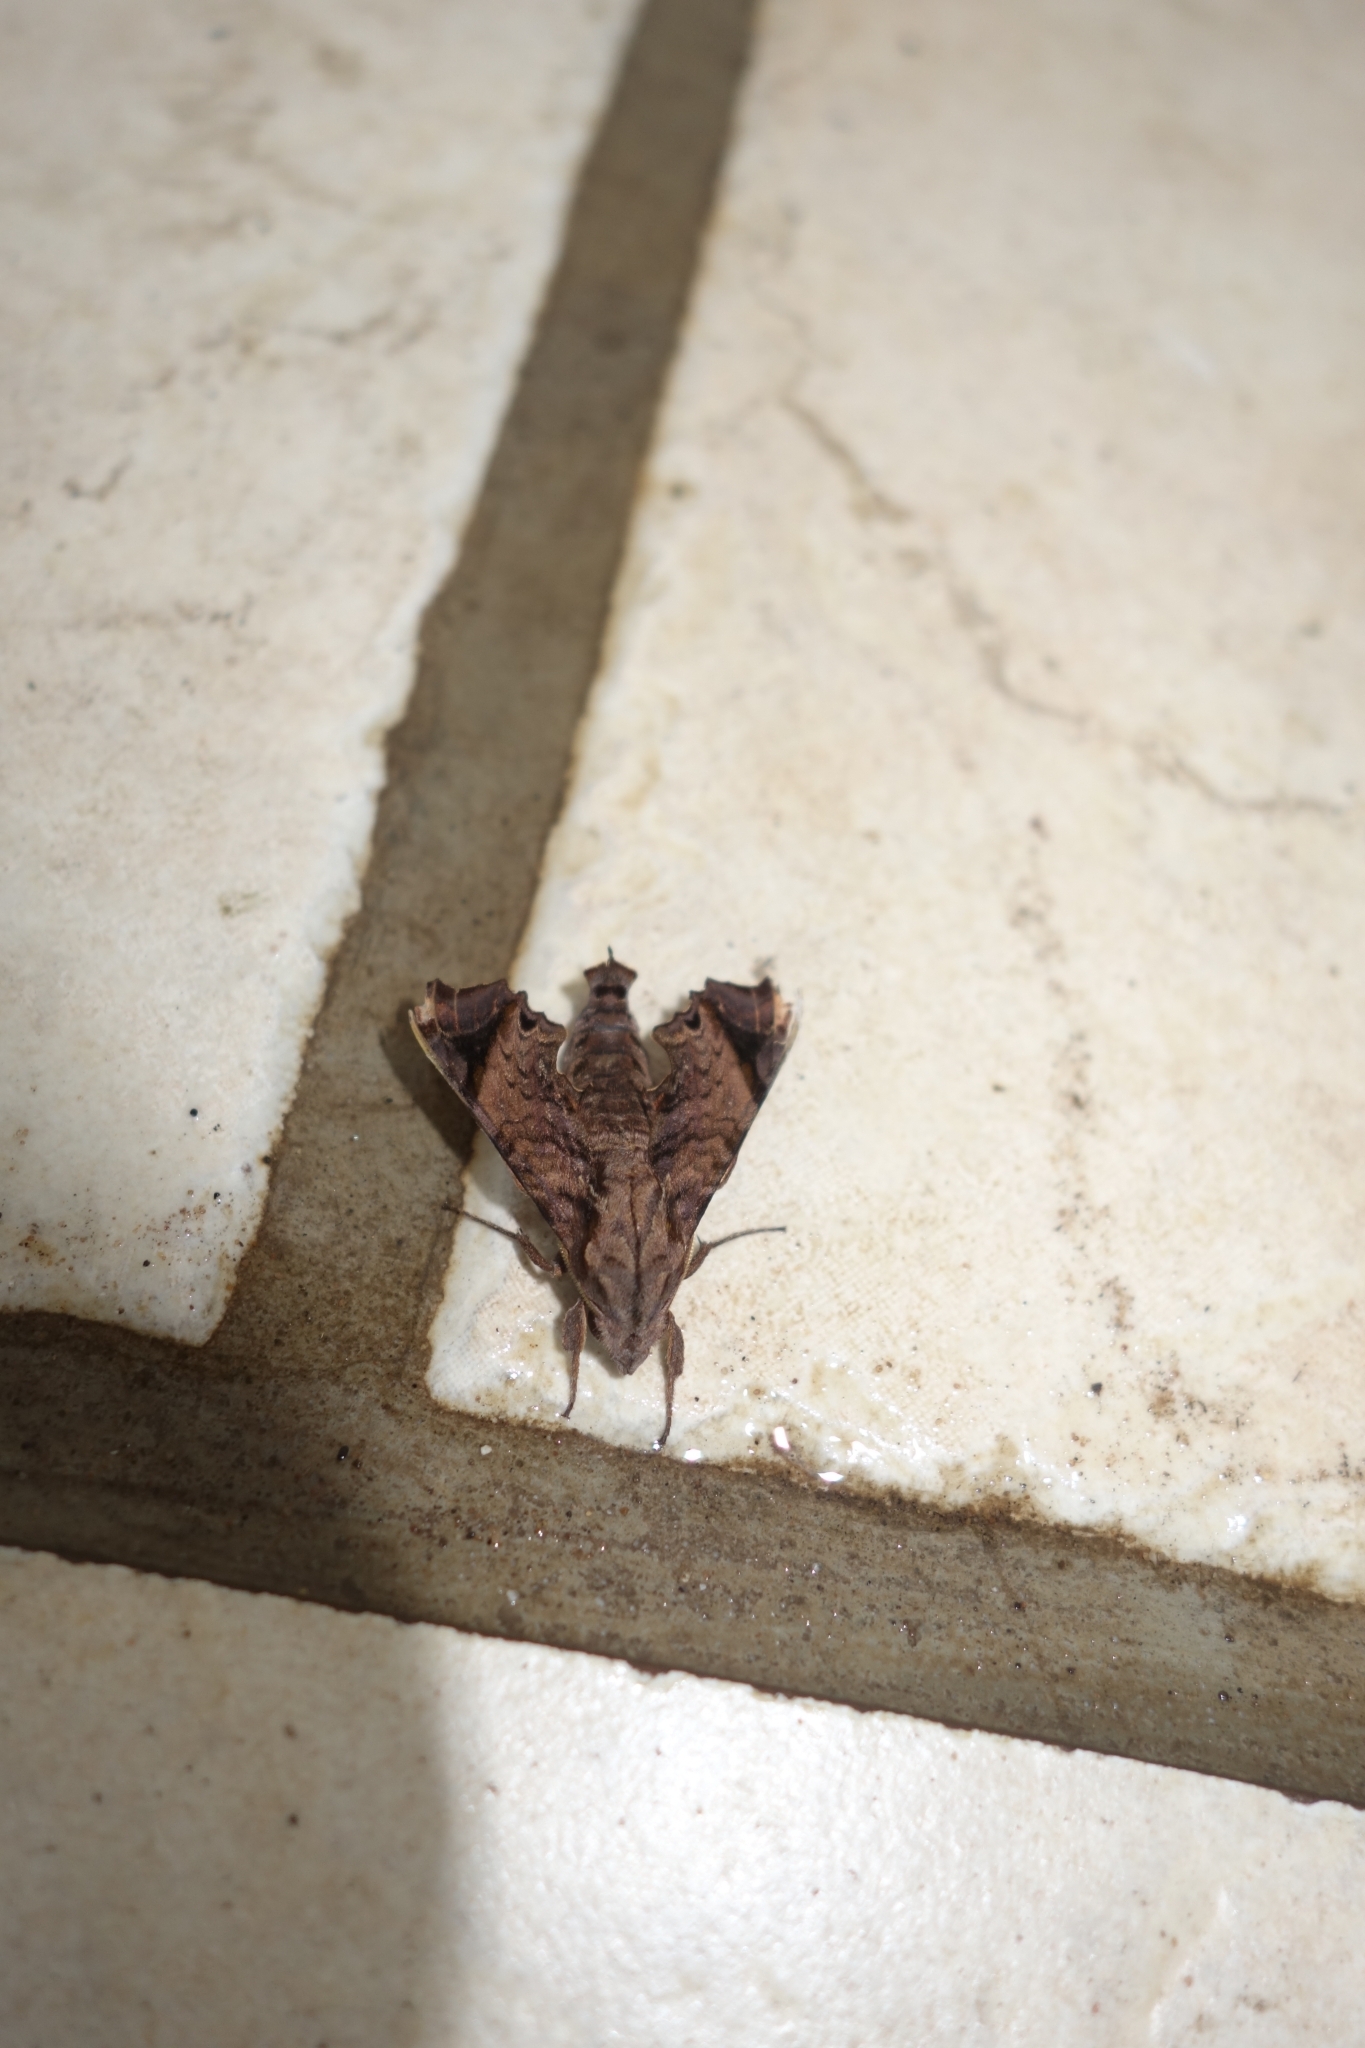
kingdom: Animalia
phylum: Arthropoda
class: Insecta
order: Lepidoptera
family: Sphingidae
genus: Temnora
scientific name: Temnora pylas
